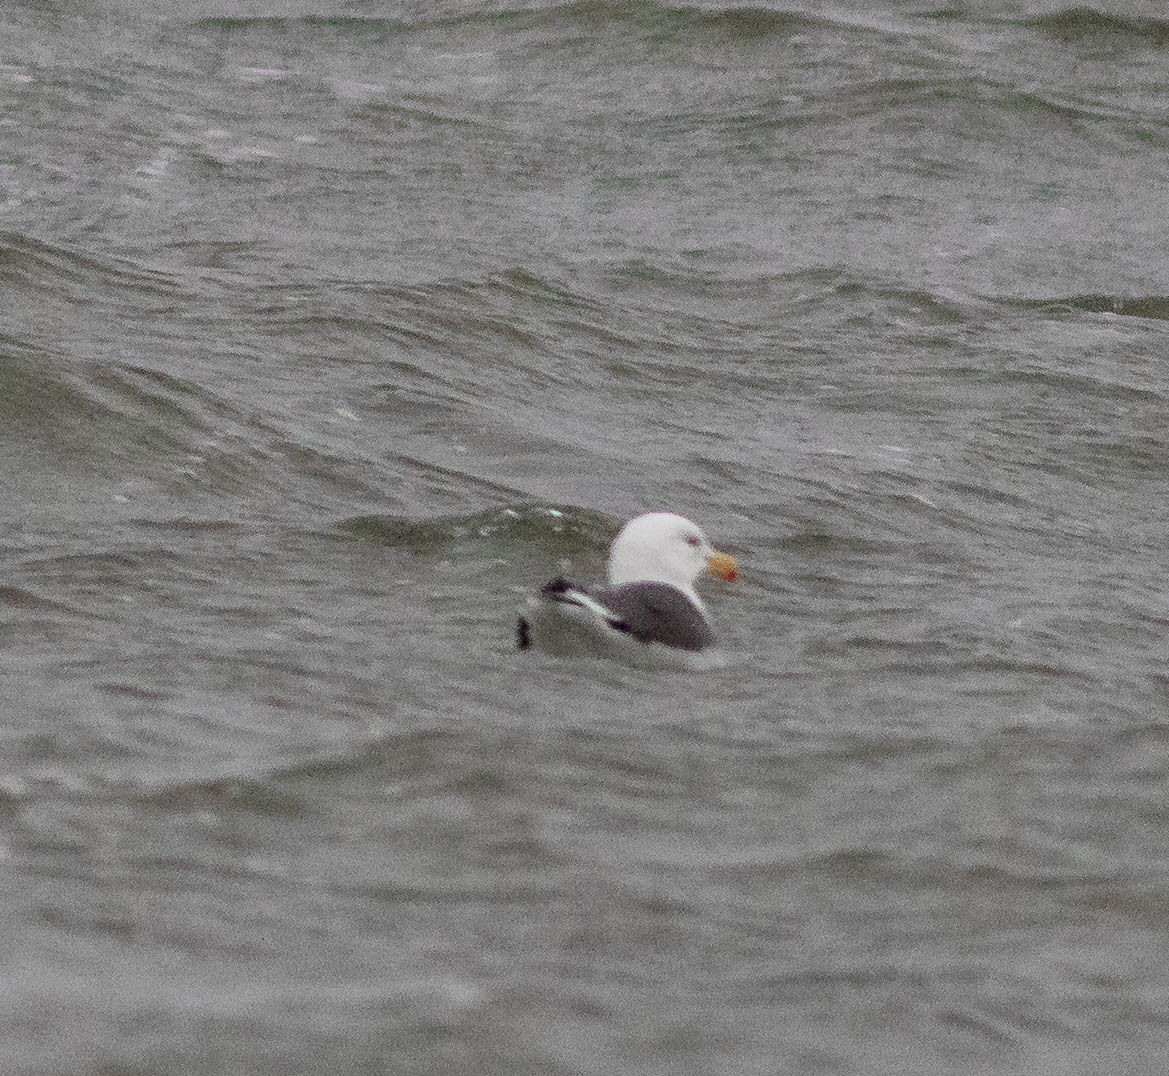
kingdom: Animalia
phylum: Chordata
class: Aves
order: Charadriiformes
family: Laridae
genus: Larus
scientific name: Larus marinus
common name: Great black-backed gull
